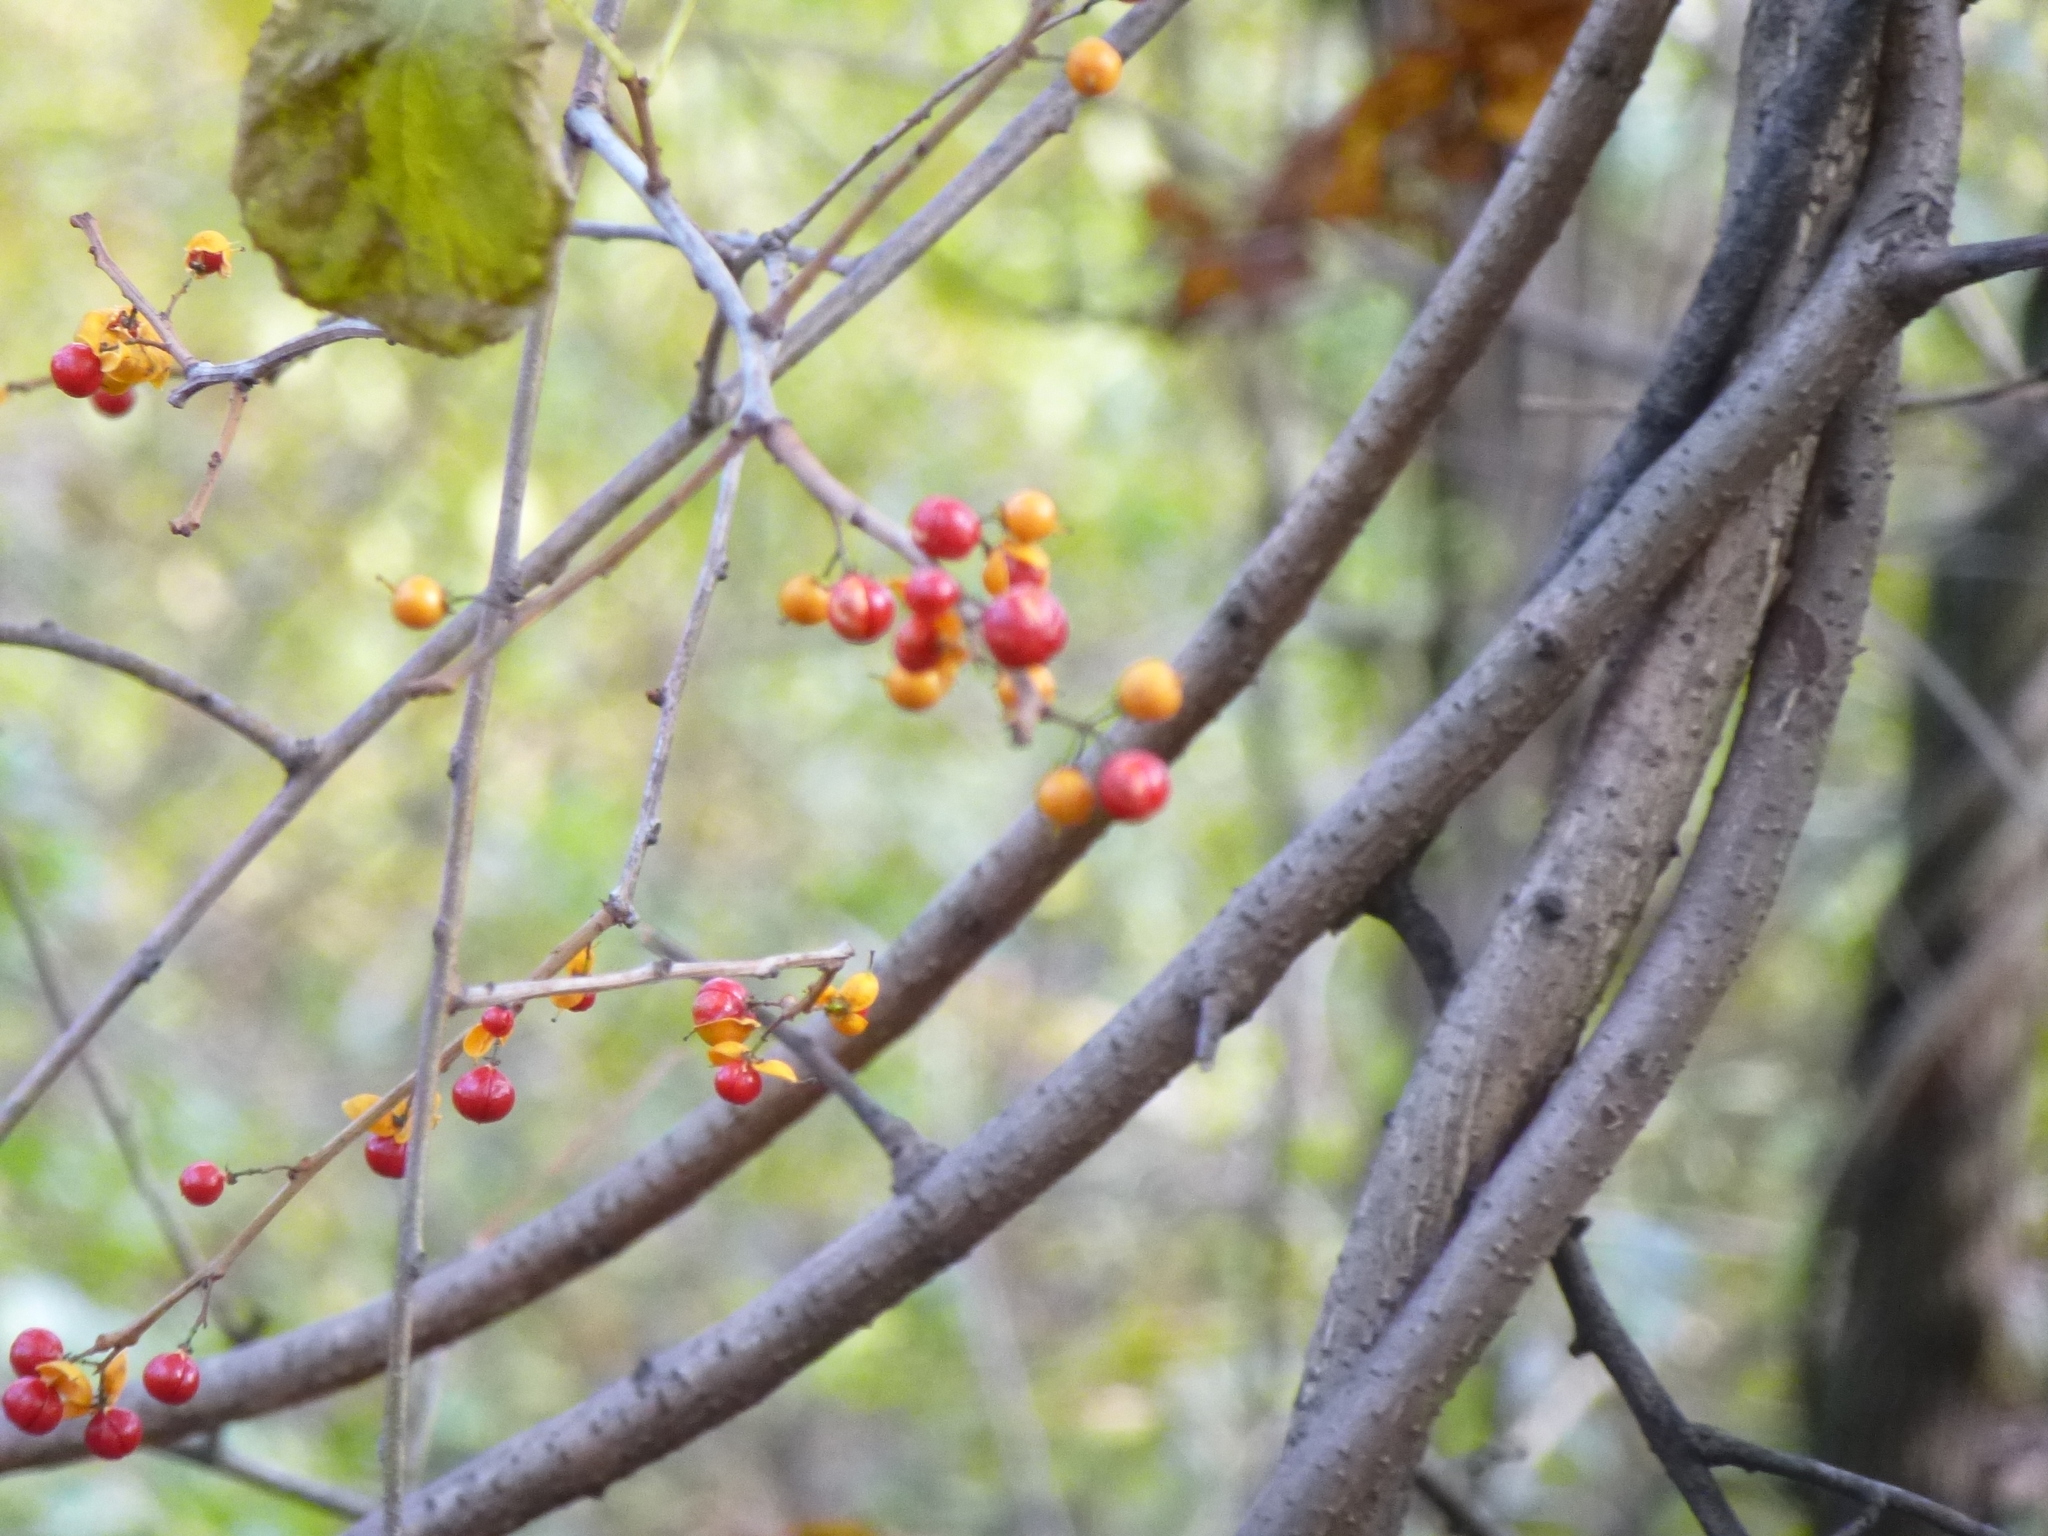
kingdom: Plantae
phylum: Tracheophyta
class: Magnoliopsida
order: Celastrales
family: Celastraceae
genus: Celastrus
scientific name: Celastrus orbiculatus
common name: Oriental bittersweet
